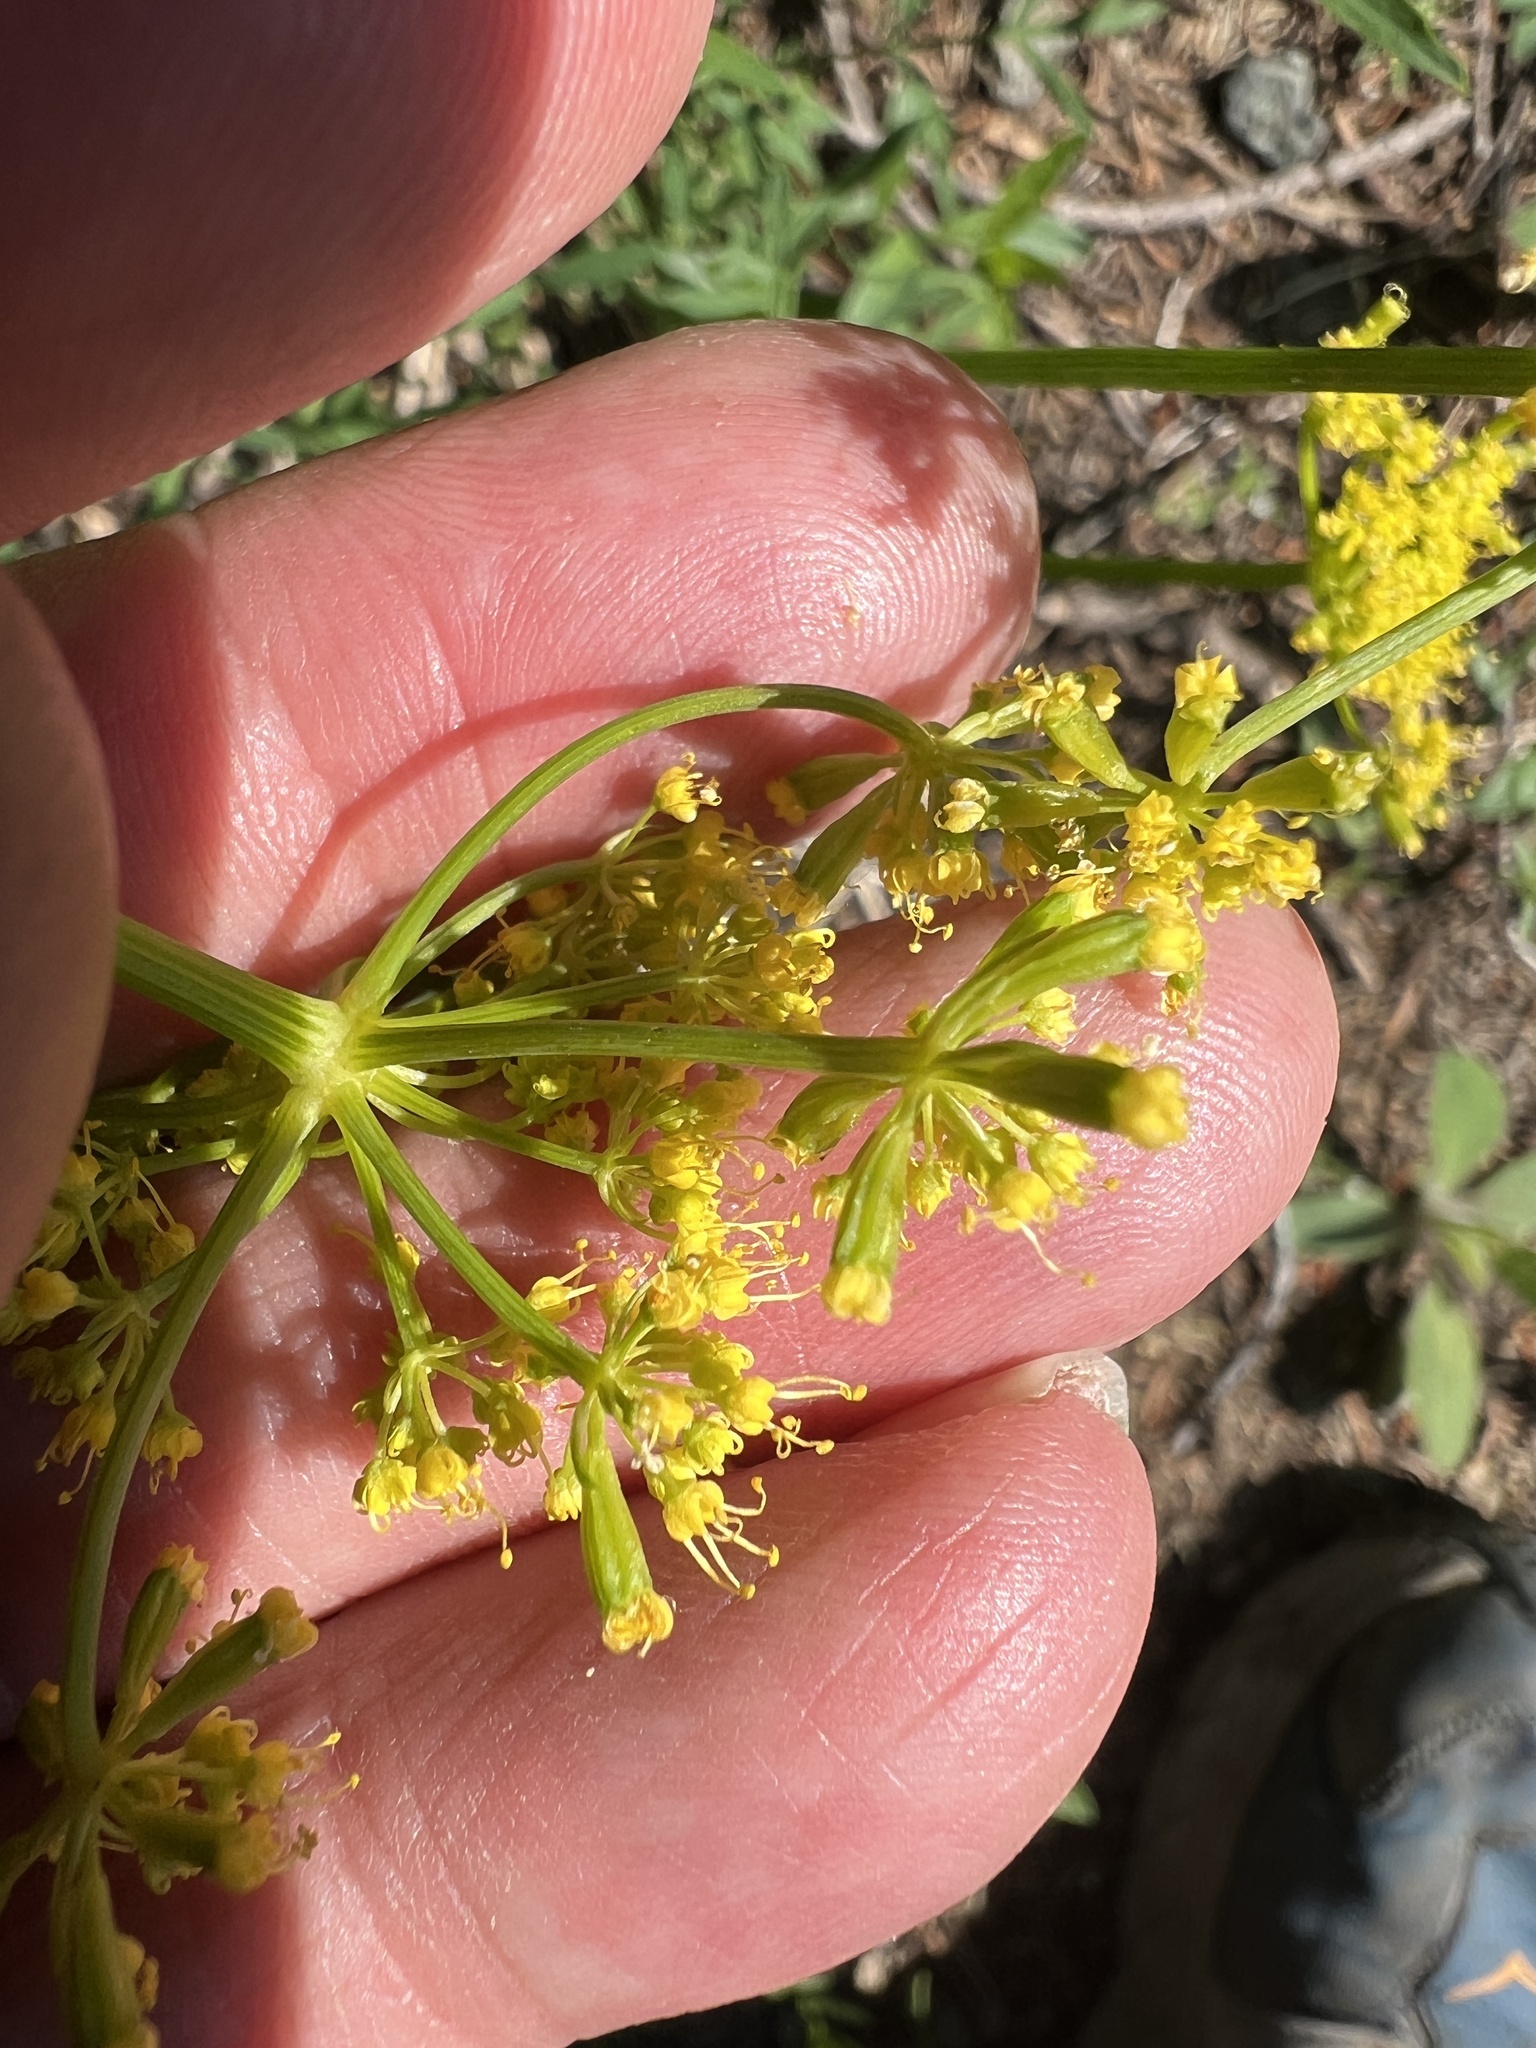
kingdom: Plantae
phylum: Tracheophyta
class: Magnoliopsida
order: Apiales
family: Apiaceae
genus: Lomatium
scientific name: Lomatium brandegeei
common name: Brandegee's desert-parsley
